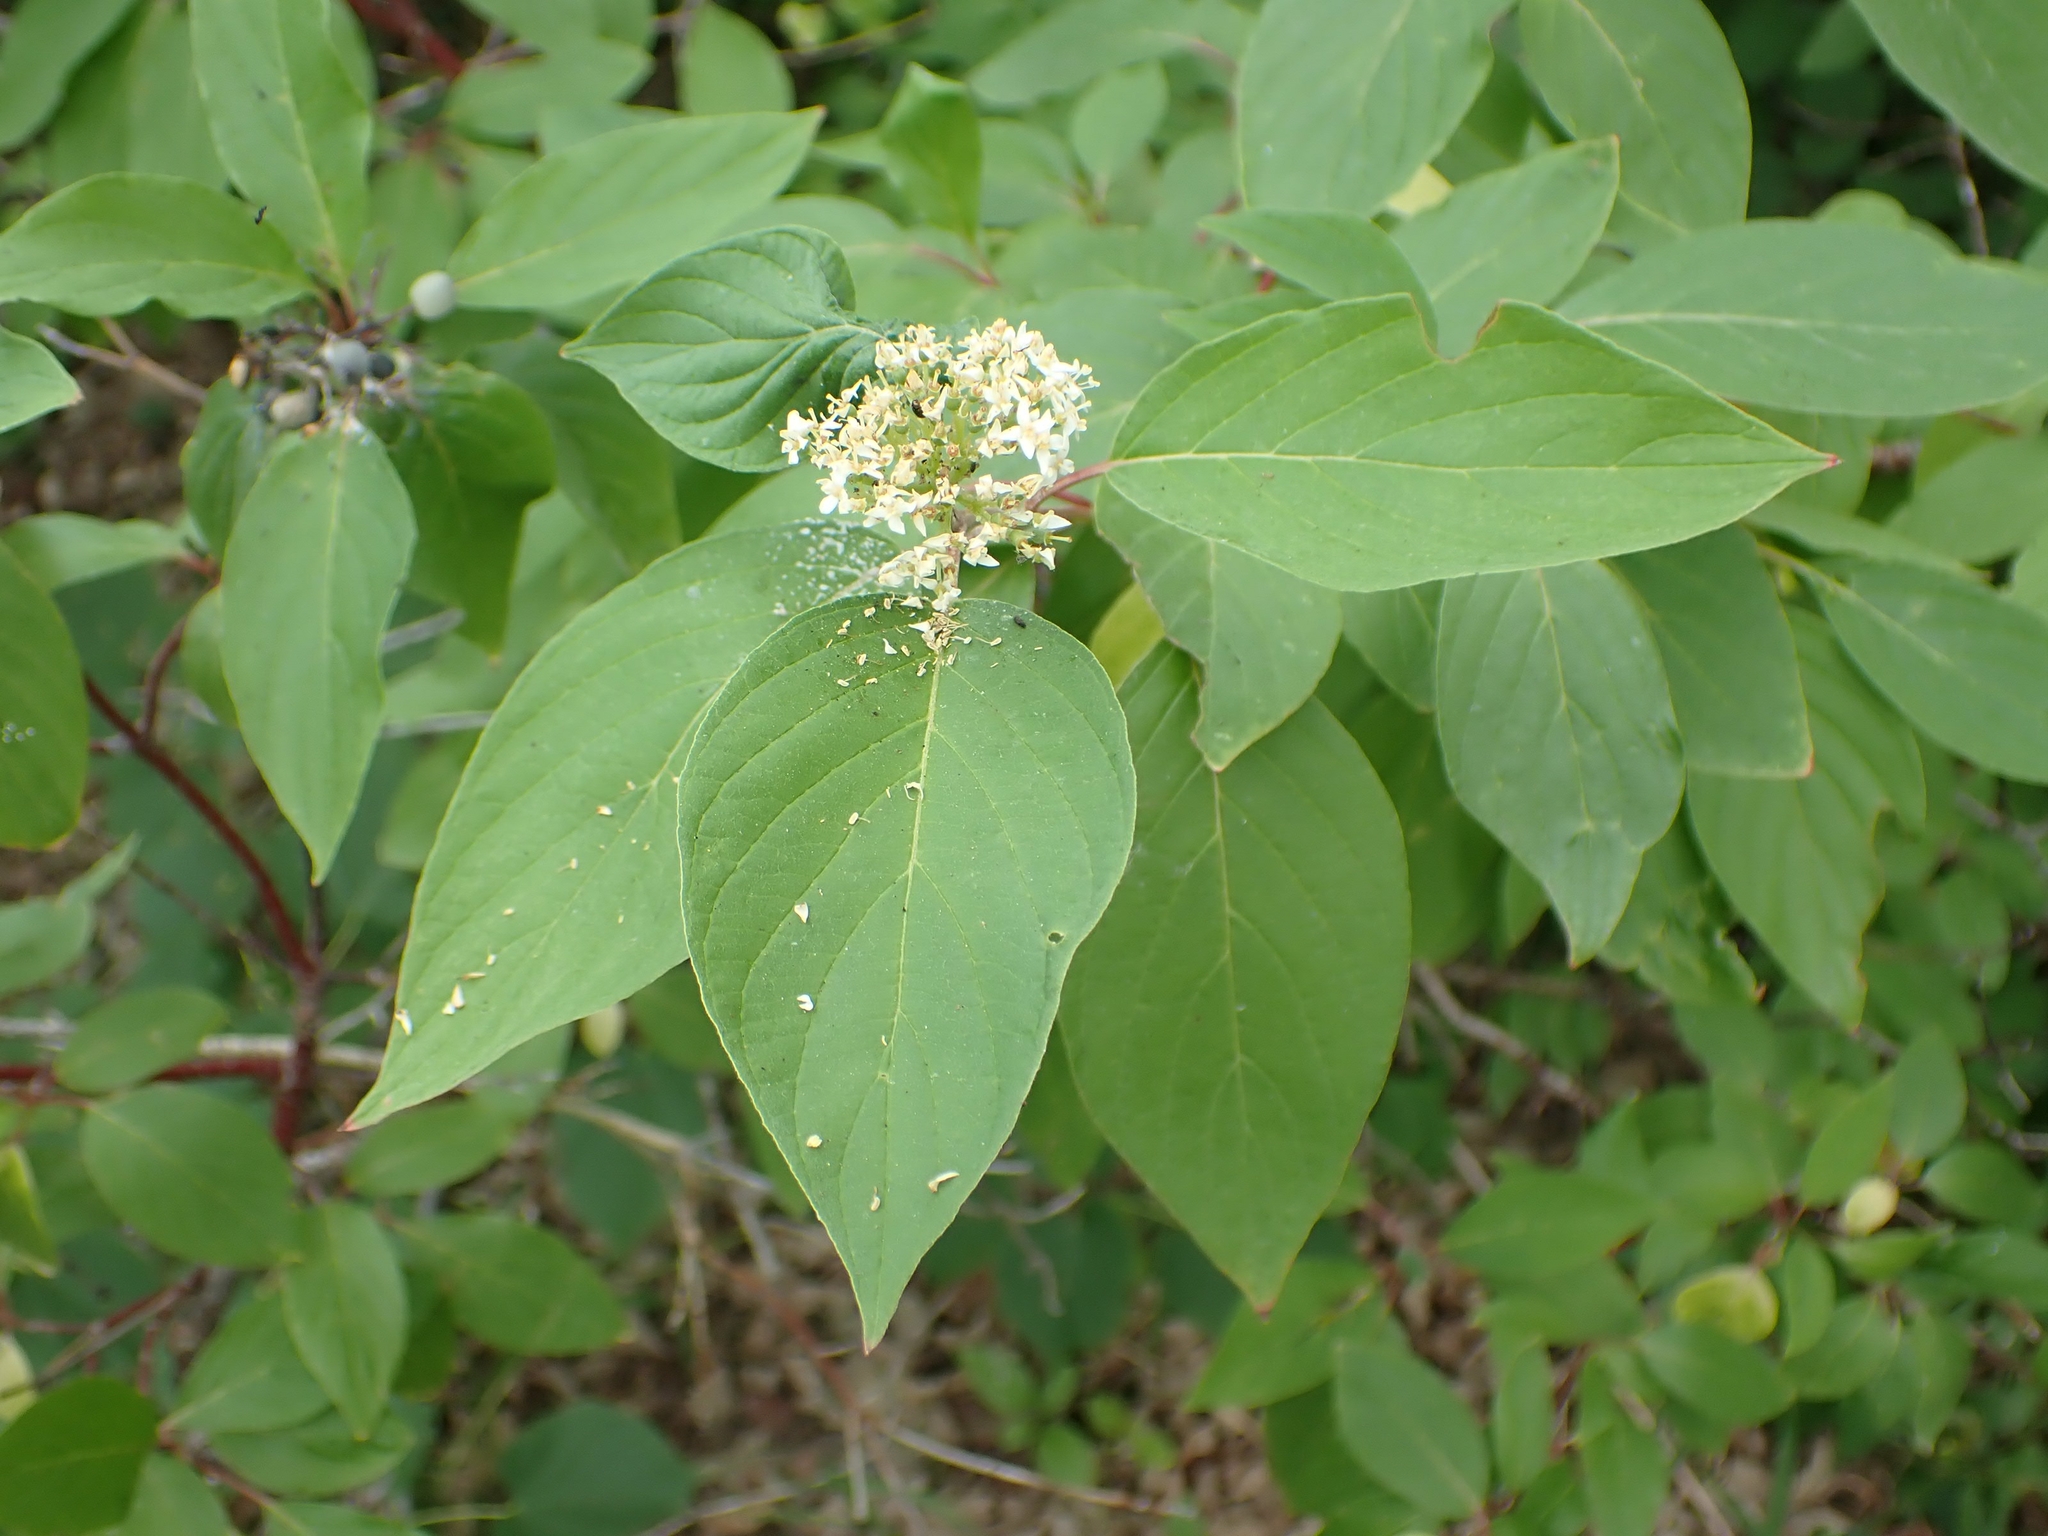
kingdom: Plantae
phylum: Tracheophyta
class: Magnoliopsida
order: Cornales
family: Cornaceae
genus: Cornus
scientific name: Cornus sericea
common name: Red-osier dogwood
